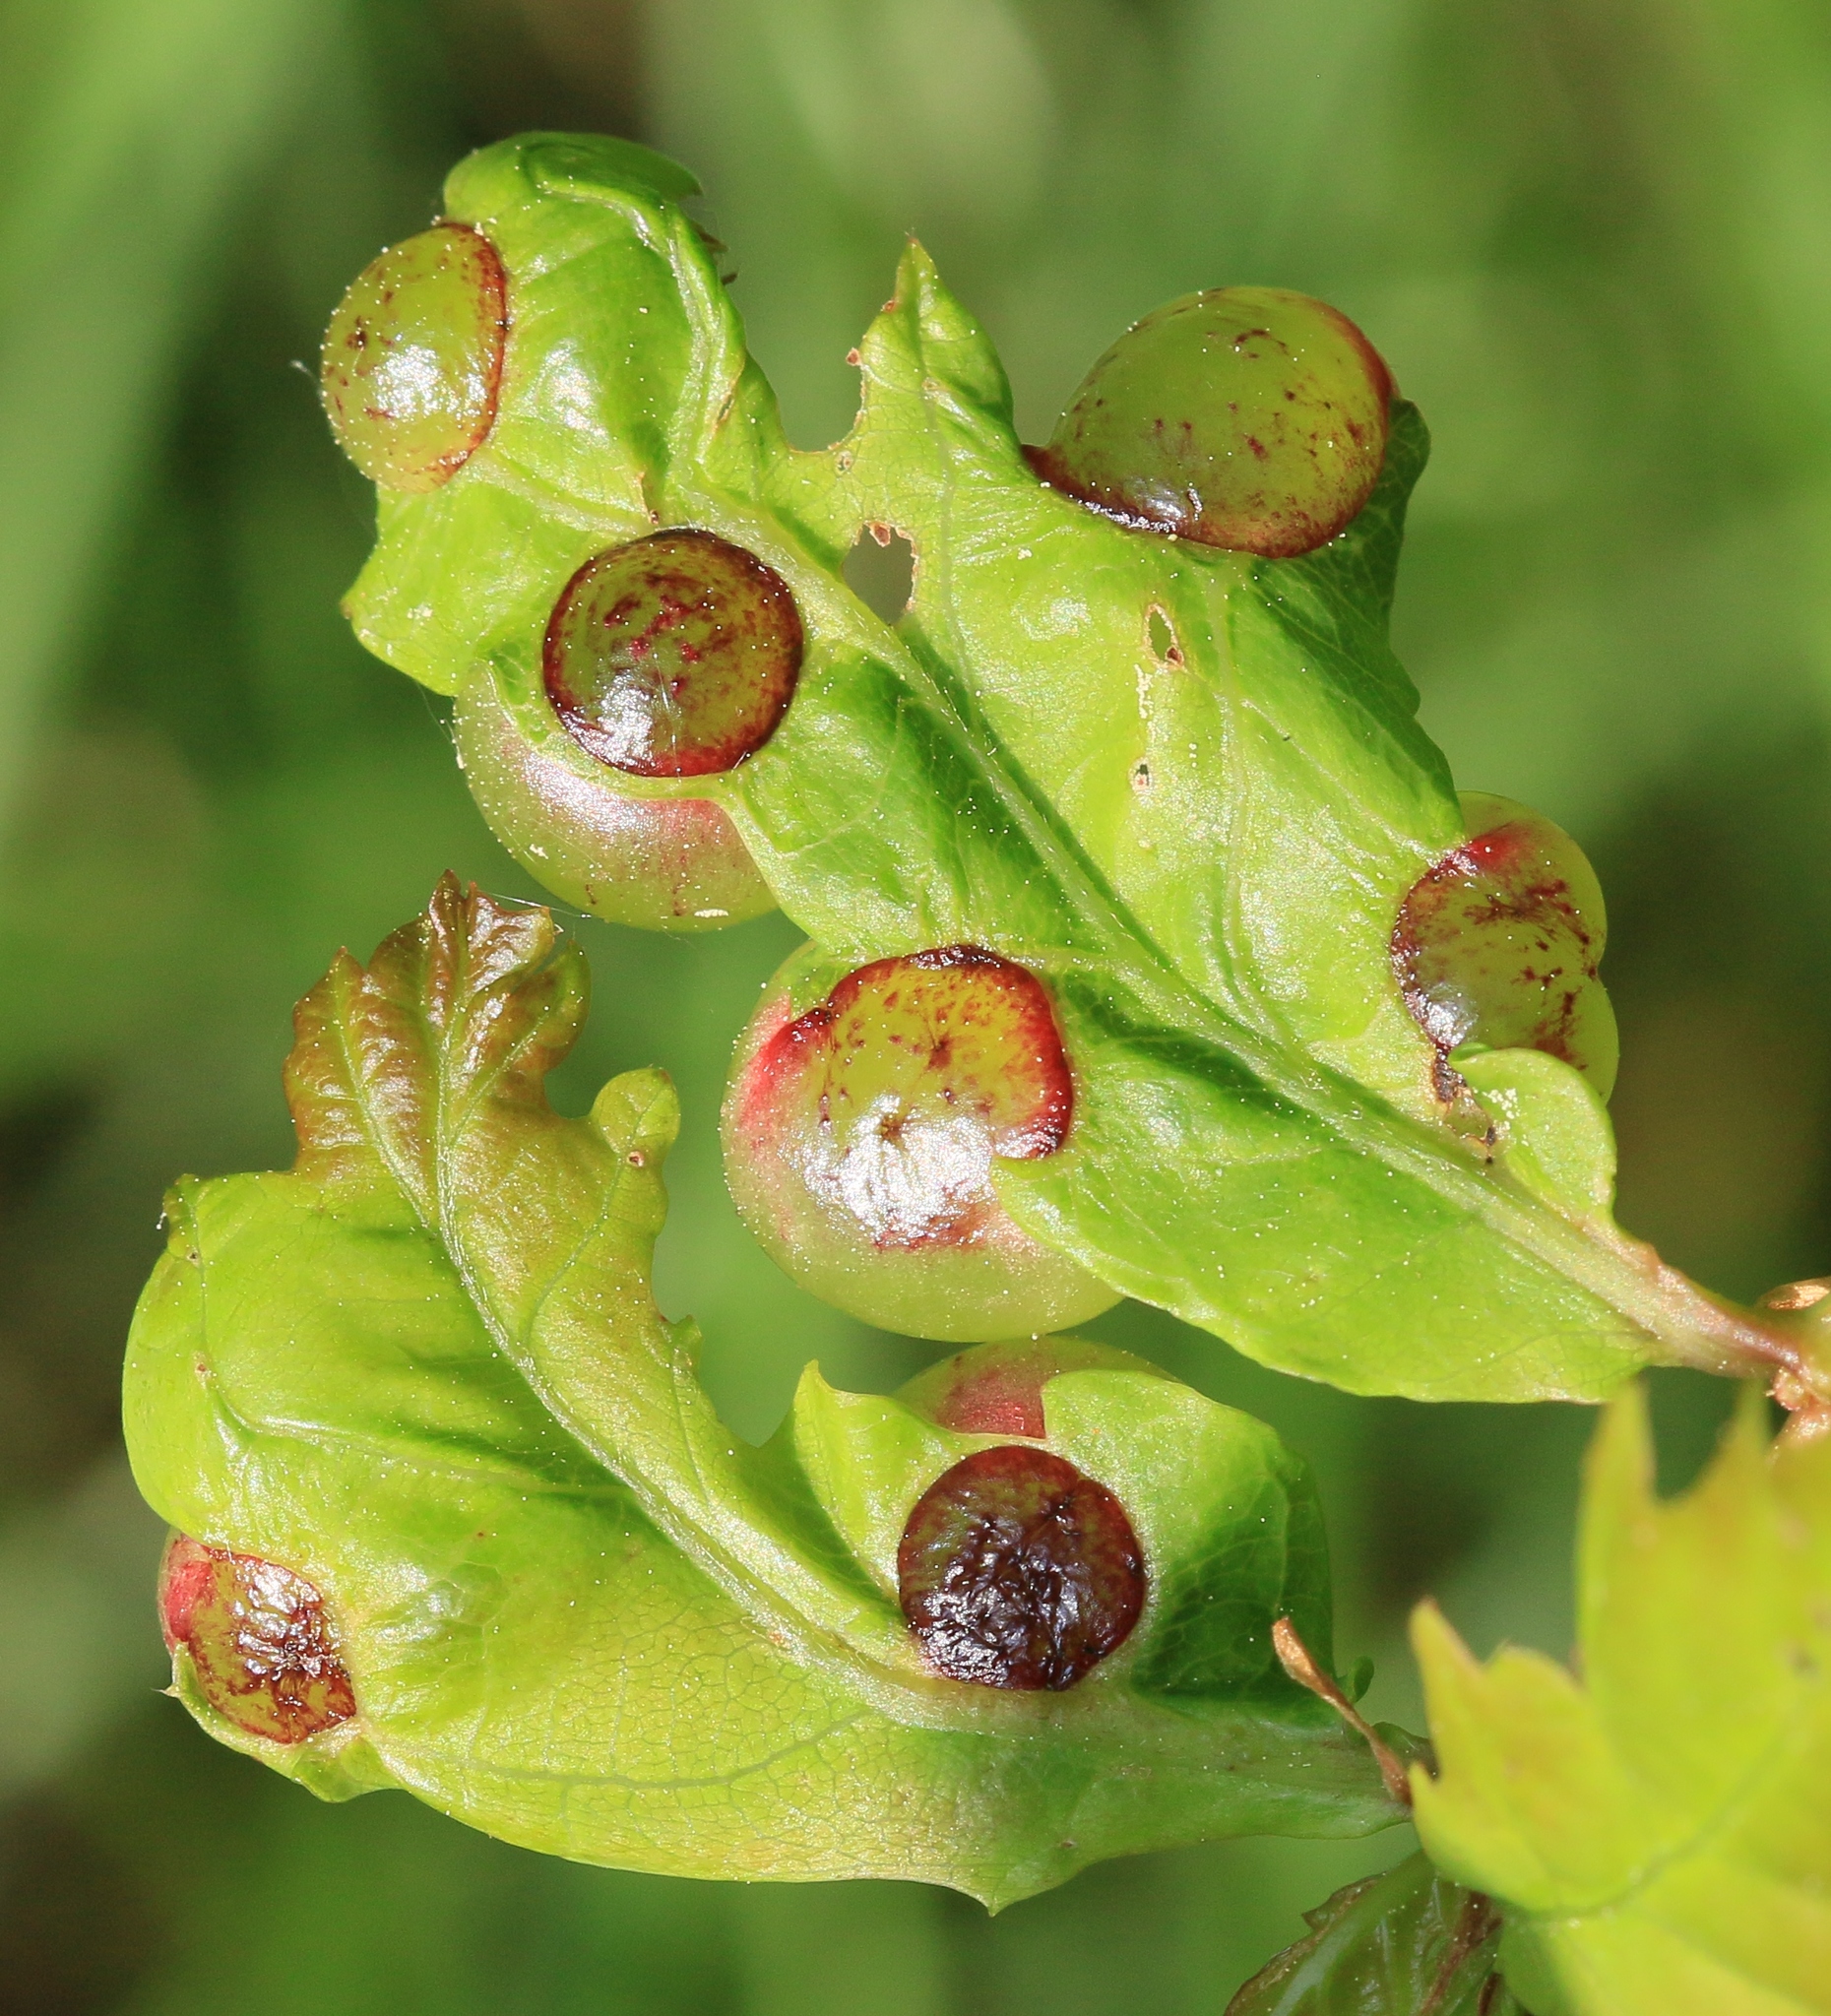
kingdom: Animalia
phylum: Arthropoda
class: Insecta
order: Hymenoptera
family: Cynipidae
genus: Neuroterus
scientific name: Neuroterus quercusbaccarum
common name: Common spangle gall
